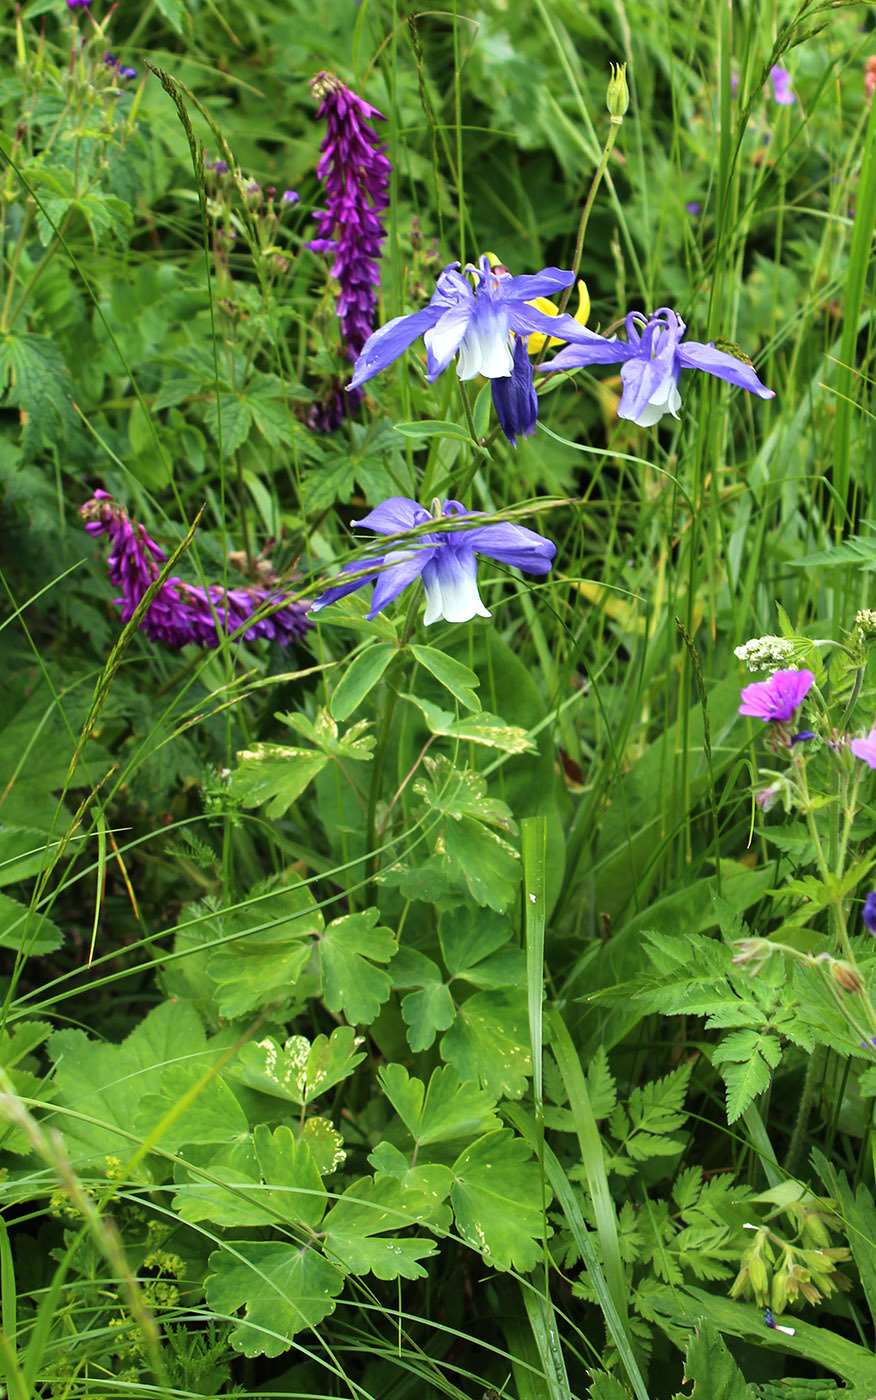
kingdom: Plantae
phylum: Tracheophyta
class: Magnoliopsida
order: Ranunculales
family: Ranunculaceae
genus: Aquilegia
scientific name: Aquilegia olympica
